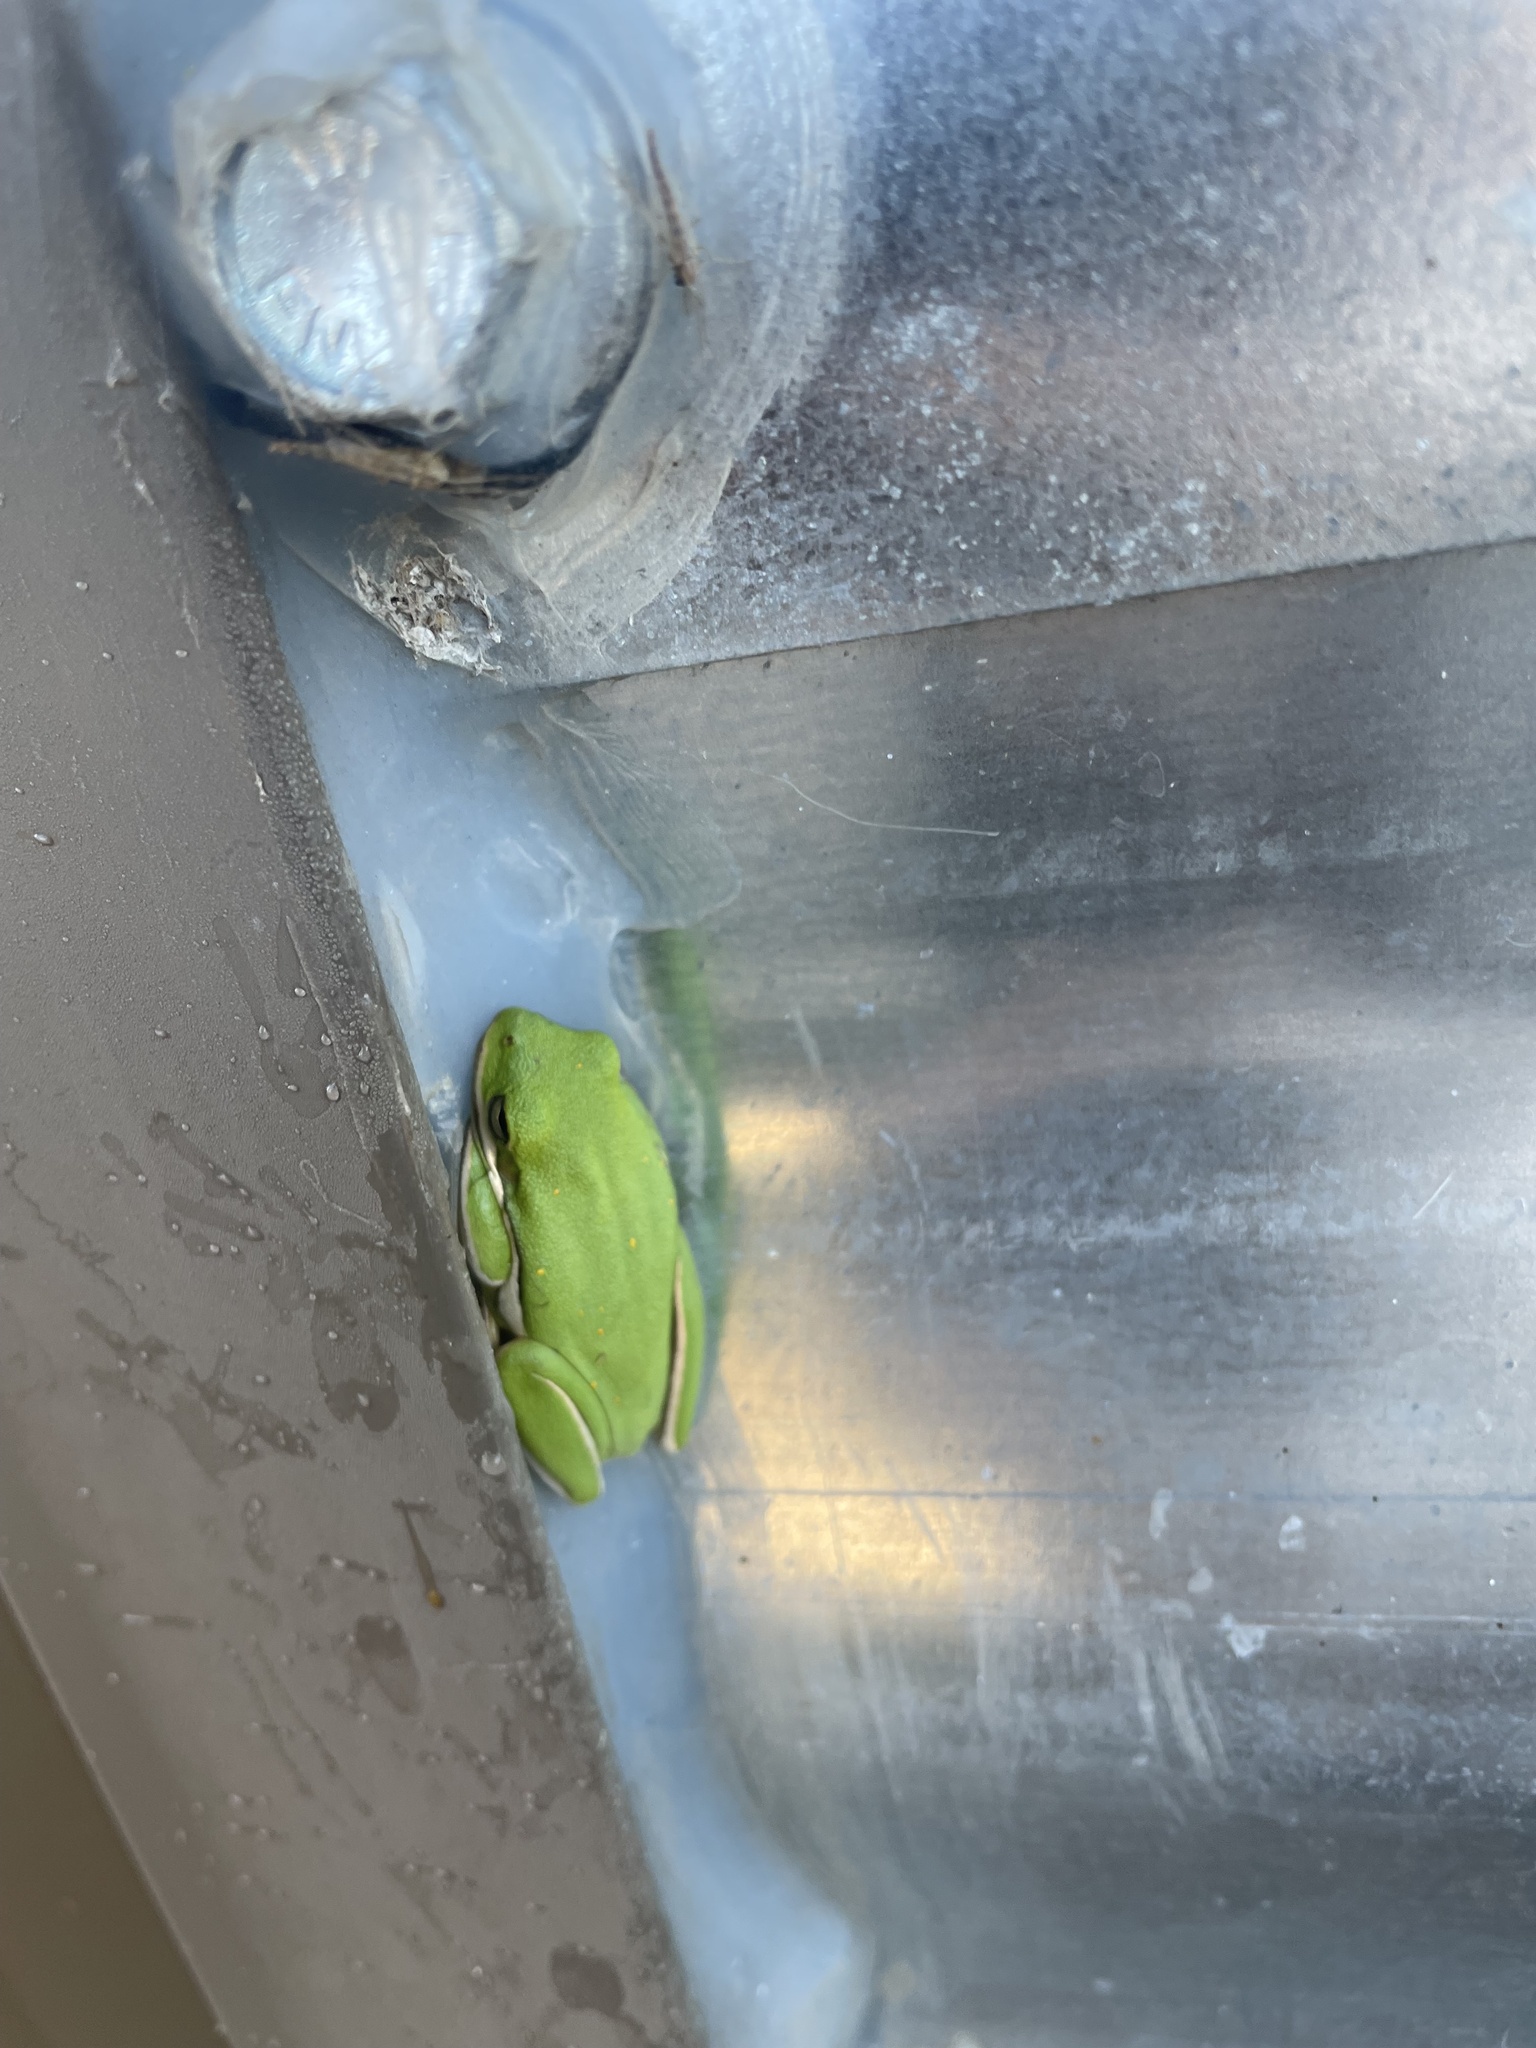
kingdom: Animalia
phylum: Chordata
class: Amphibia
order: Anura
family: Hylidae
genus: Dryophytes
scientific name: Dryophytes cinereus
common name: Green treefrog
